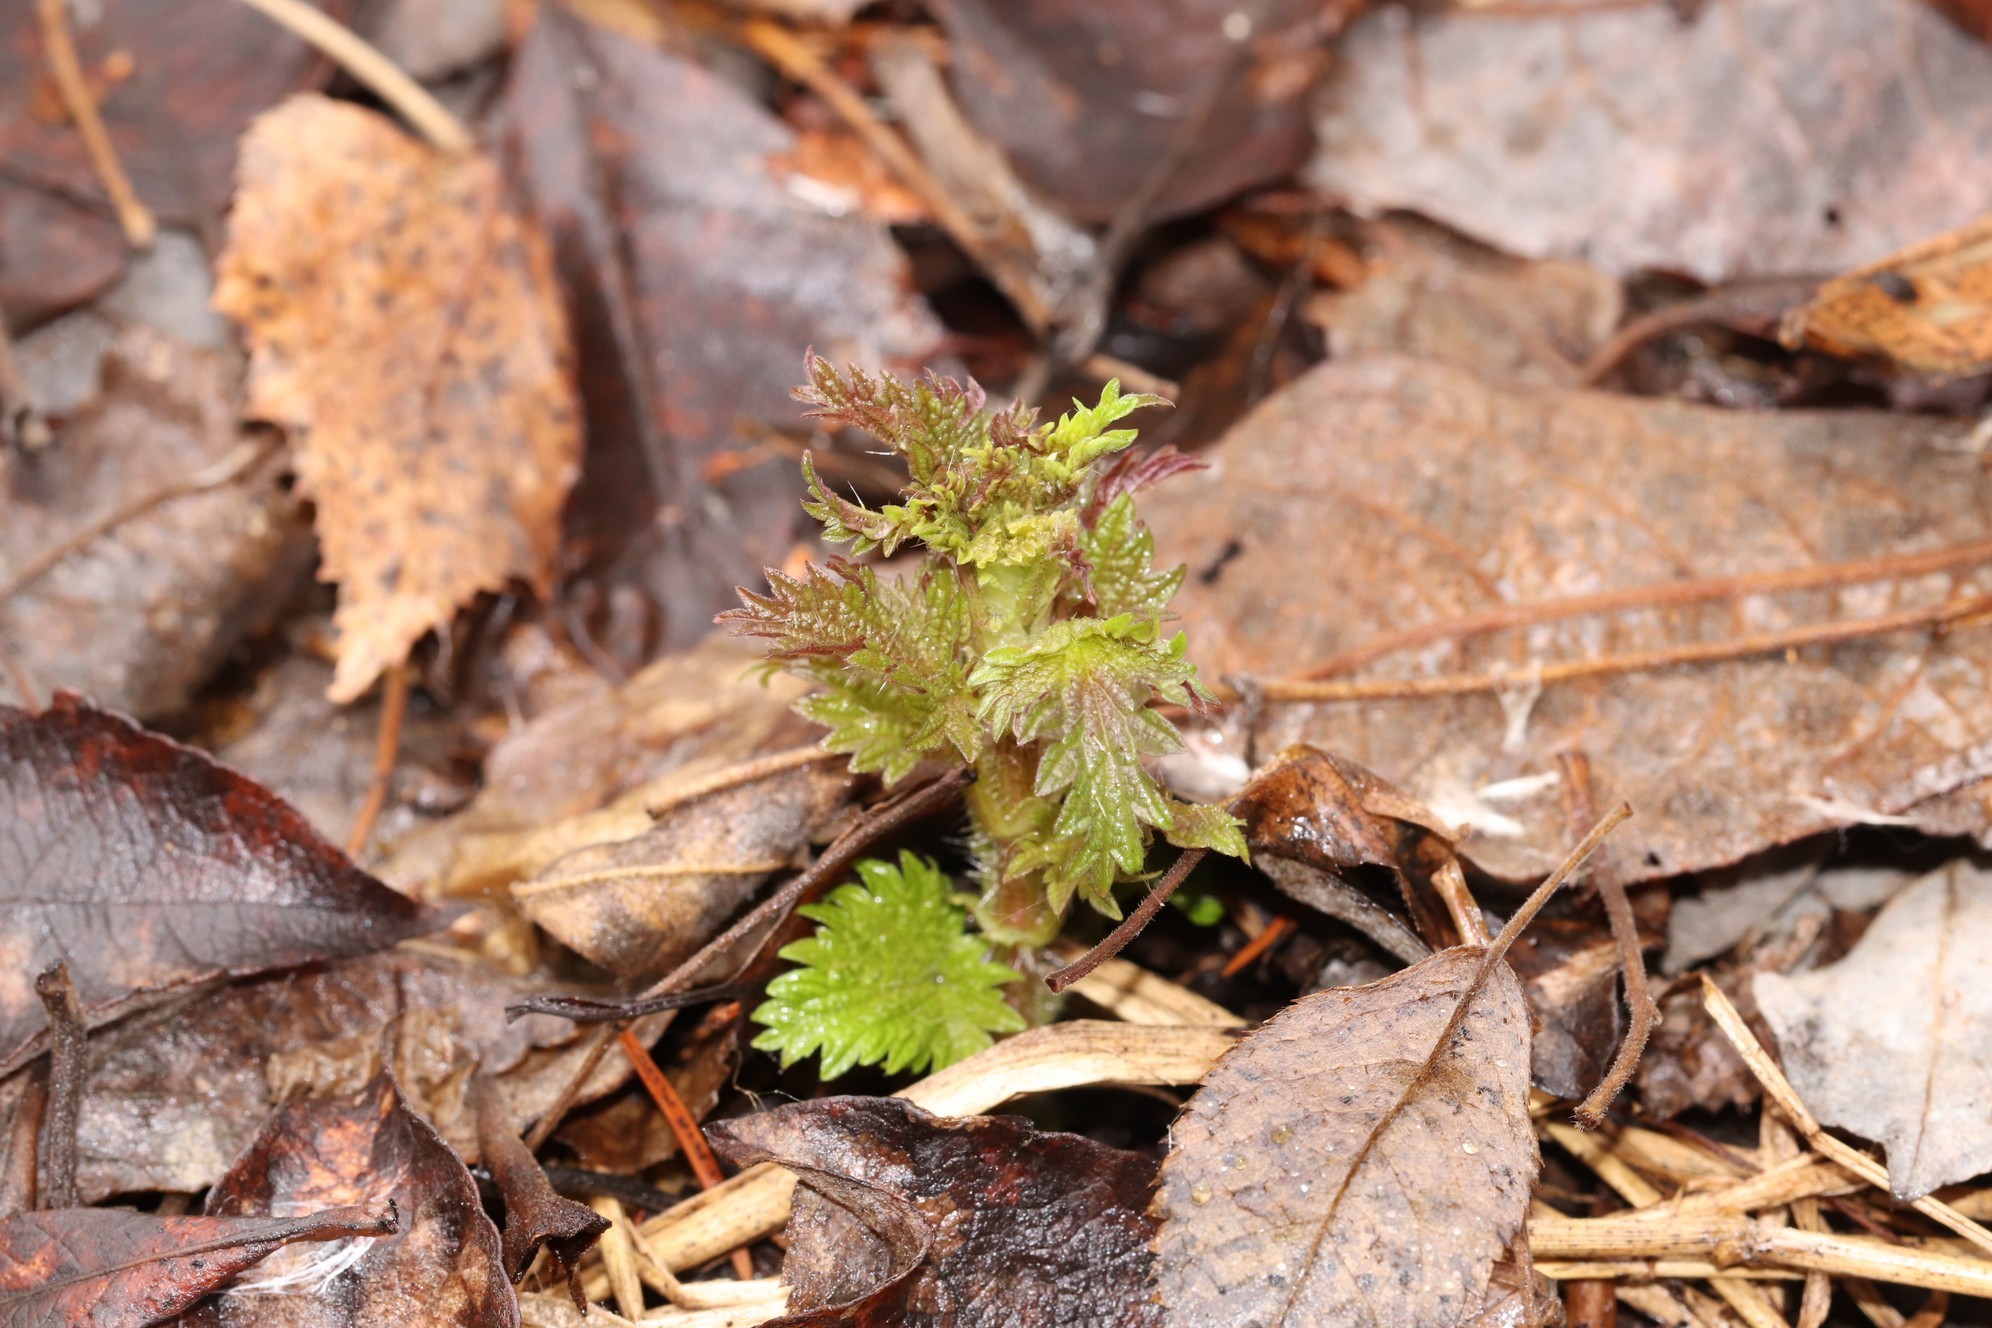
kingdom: Plantae
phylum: Tracheophyta
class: Magnoliopsida
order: Rosales
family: Urticaceae
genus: Urtica
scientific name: Urtica dioica
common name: Common nettle
